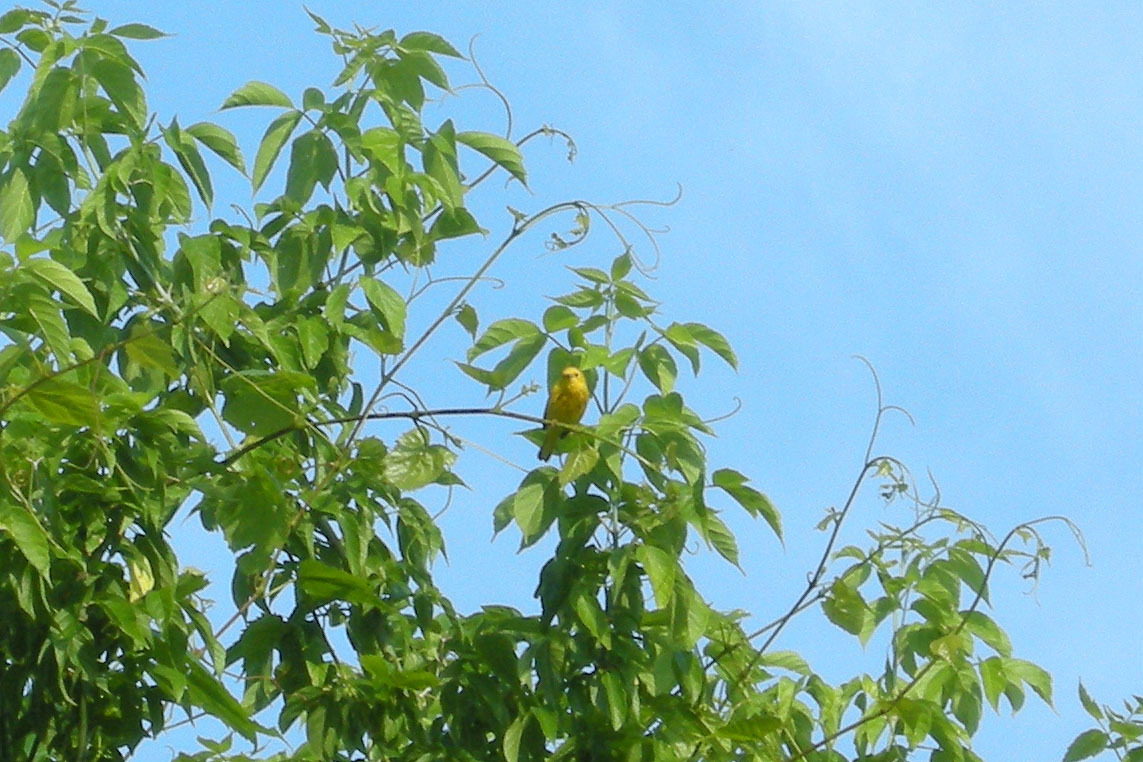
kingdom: Animalia
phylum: Chordata
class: Aves
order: Passeriformes
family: Parulidae
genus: Setophaga
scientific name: Setophaga petechia
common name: Yellow warbler
